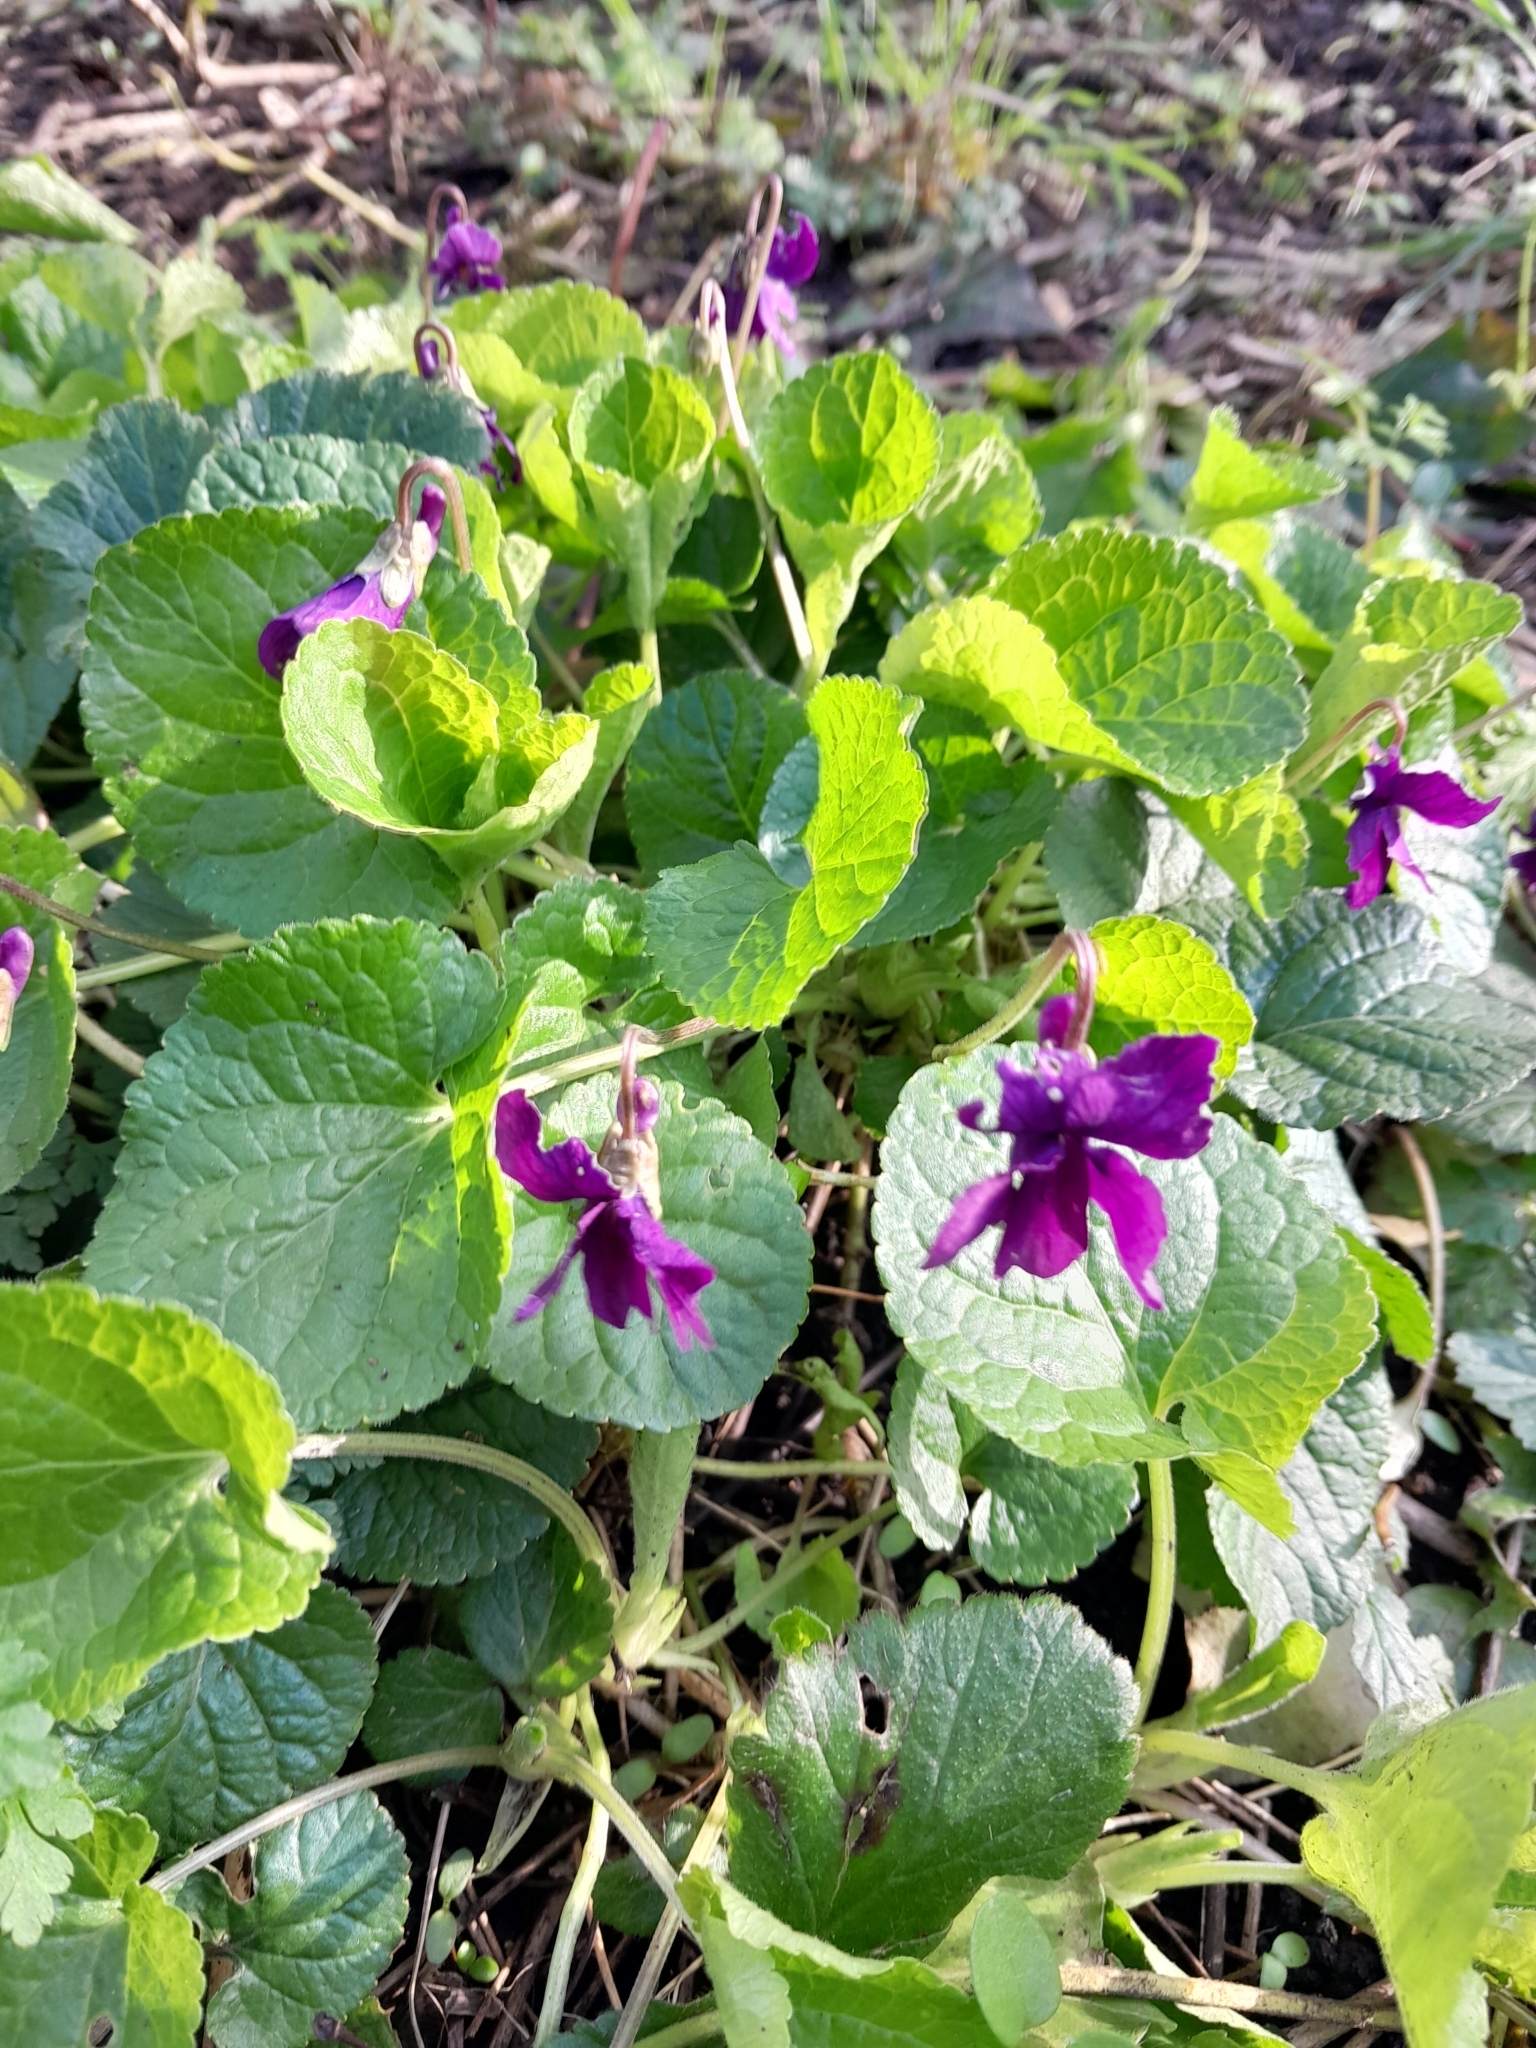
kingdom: Plantae
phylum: Tracheophyta
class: Magnoliopsida
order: Malpighiales
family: Violaceae
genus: Viola
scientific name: Viola odorata
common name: Sweet violet
